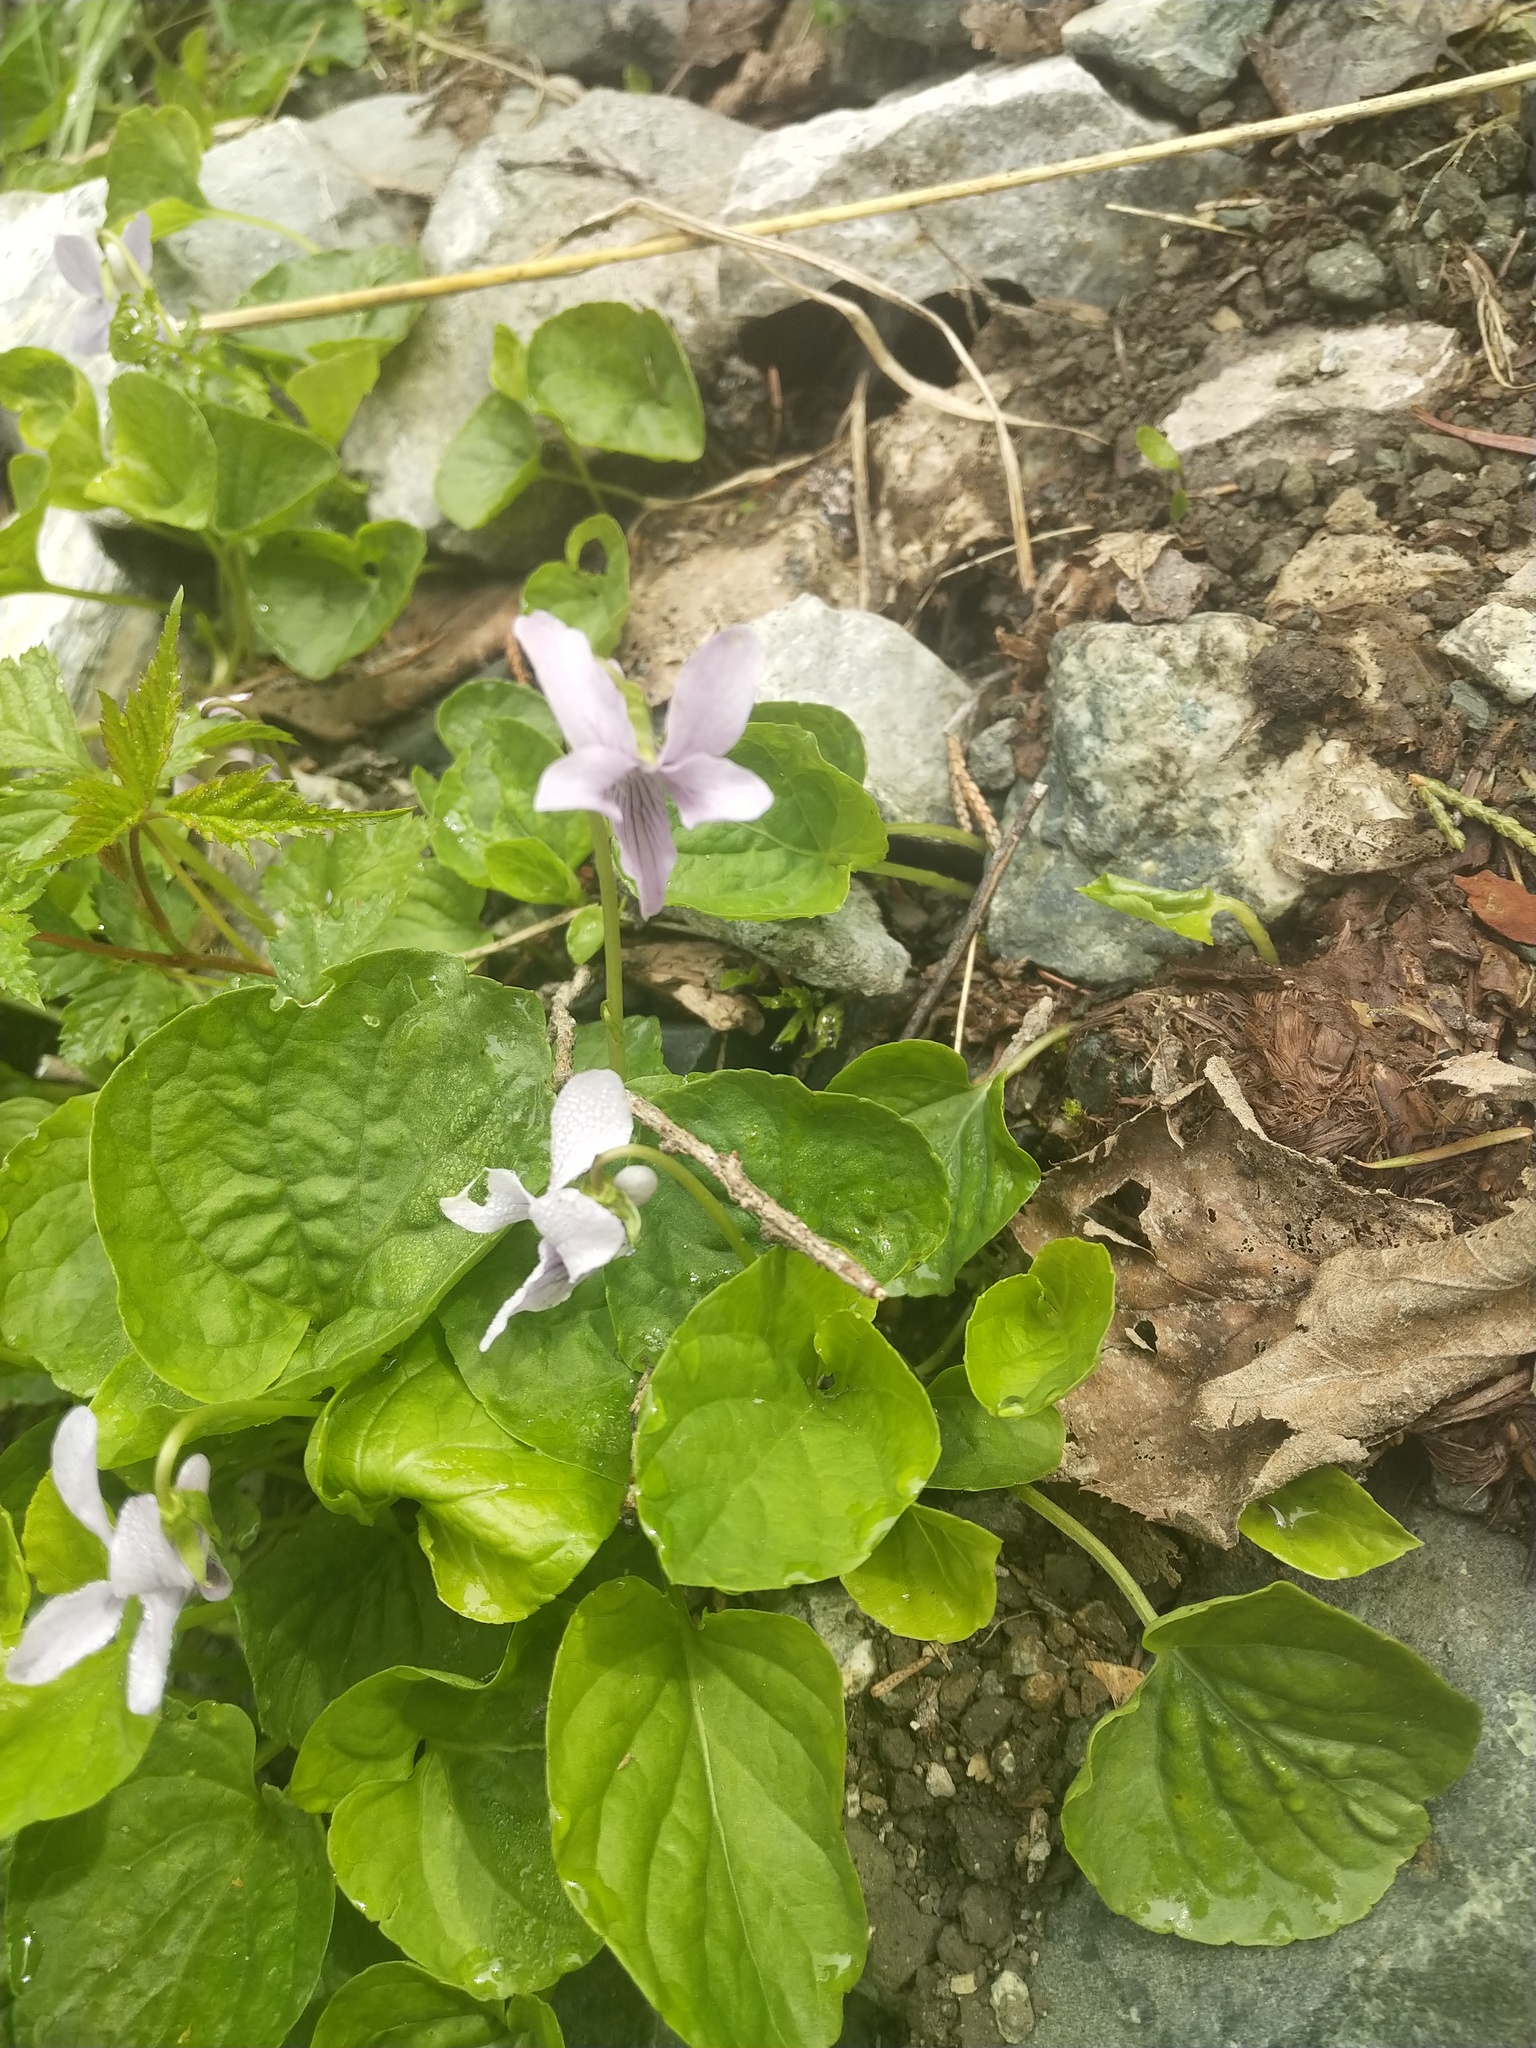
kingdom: Plantae
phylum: Tracheophyta
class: Magnoliopsida
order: Malpighiales
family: Violaceae
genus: Viola
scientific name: Viola palustris
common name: Marsh violet
